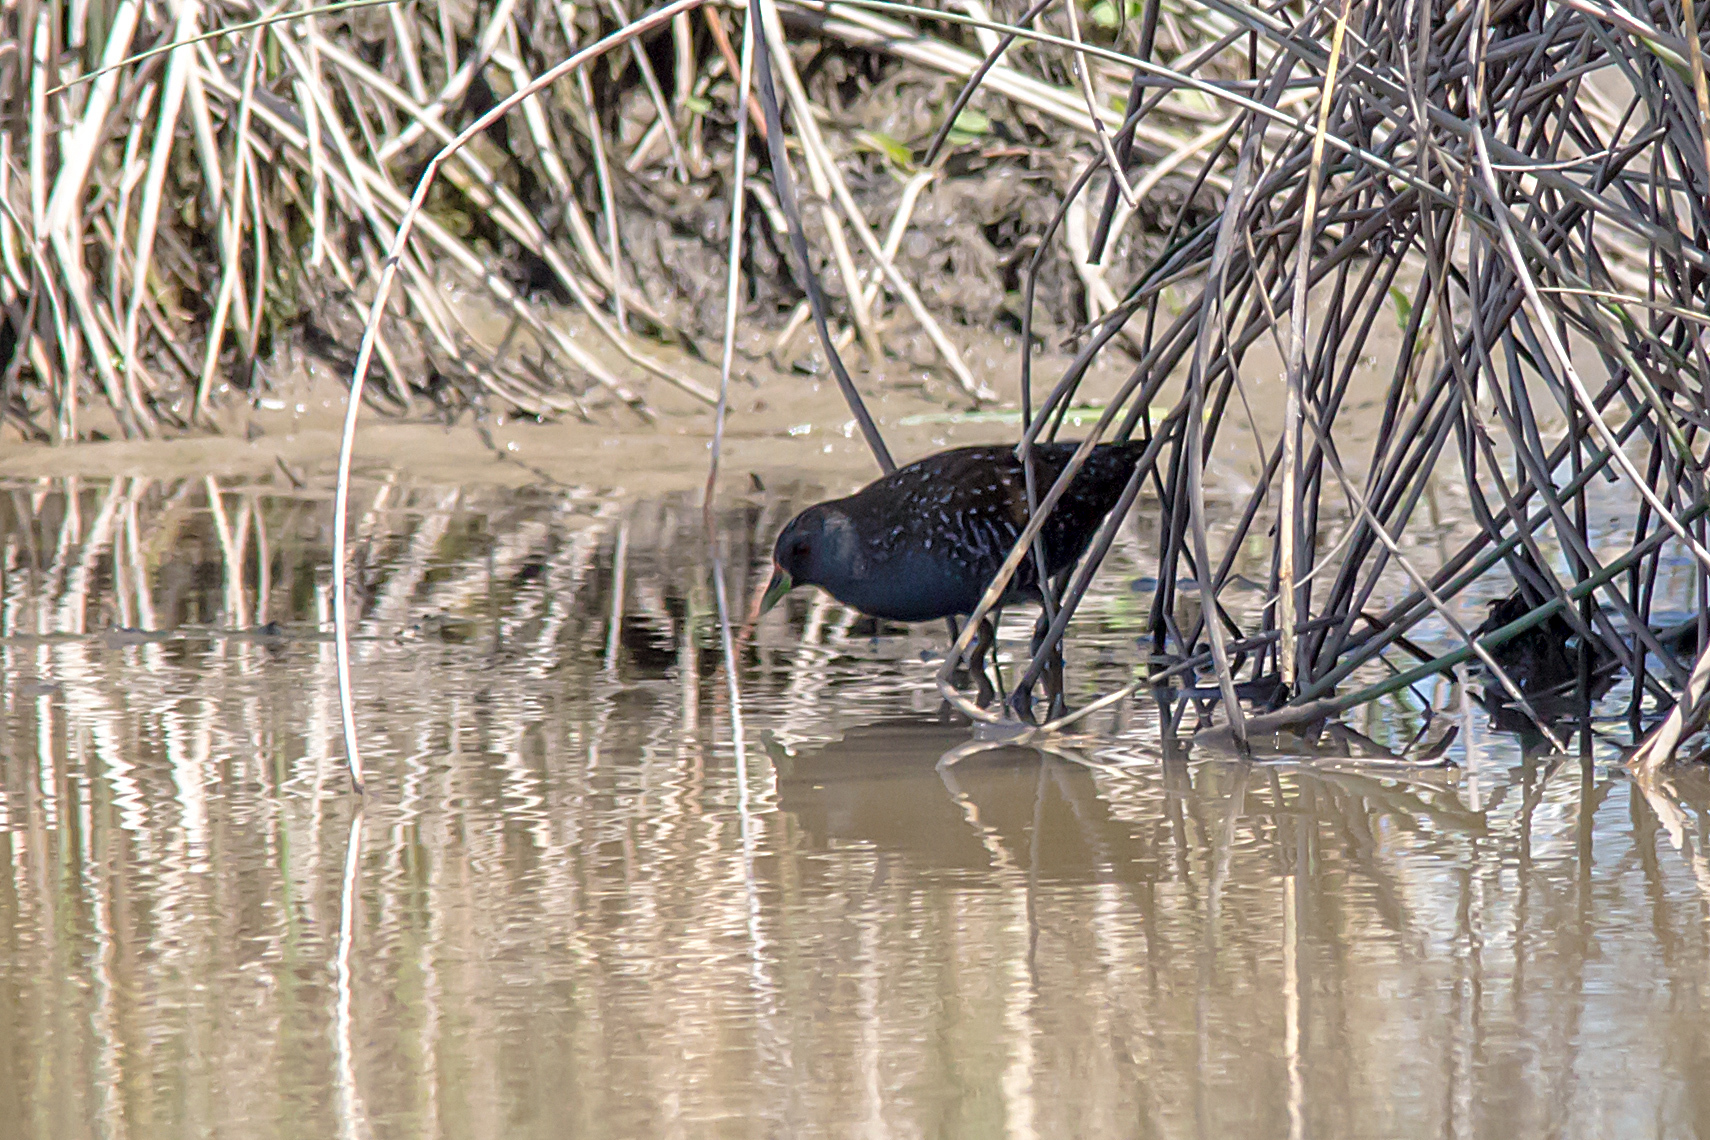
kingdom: Animalia
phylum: Chordata
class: Aves
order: Gruiformes
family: Rallidae
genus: Porzana
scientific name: Porzana fluminea
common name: Australian crake
